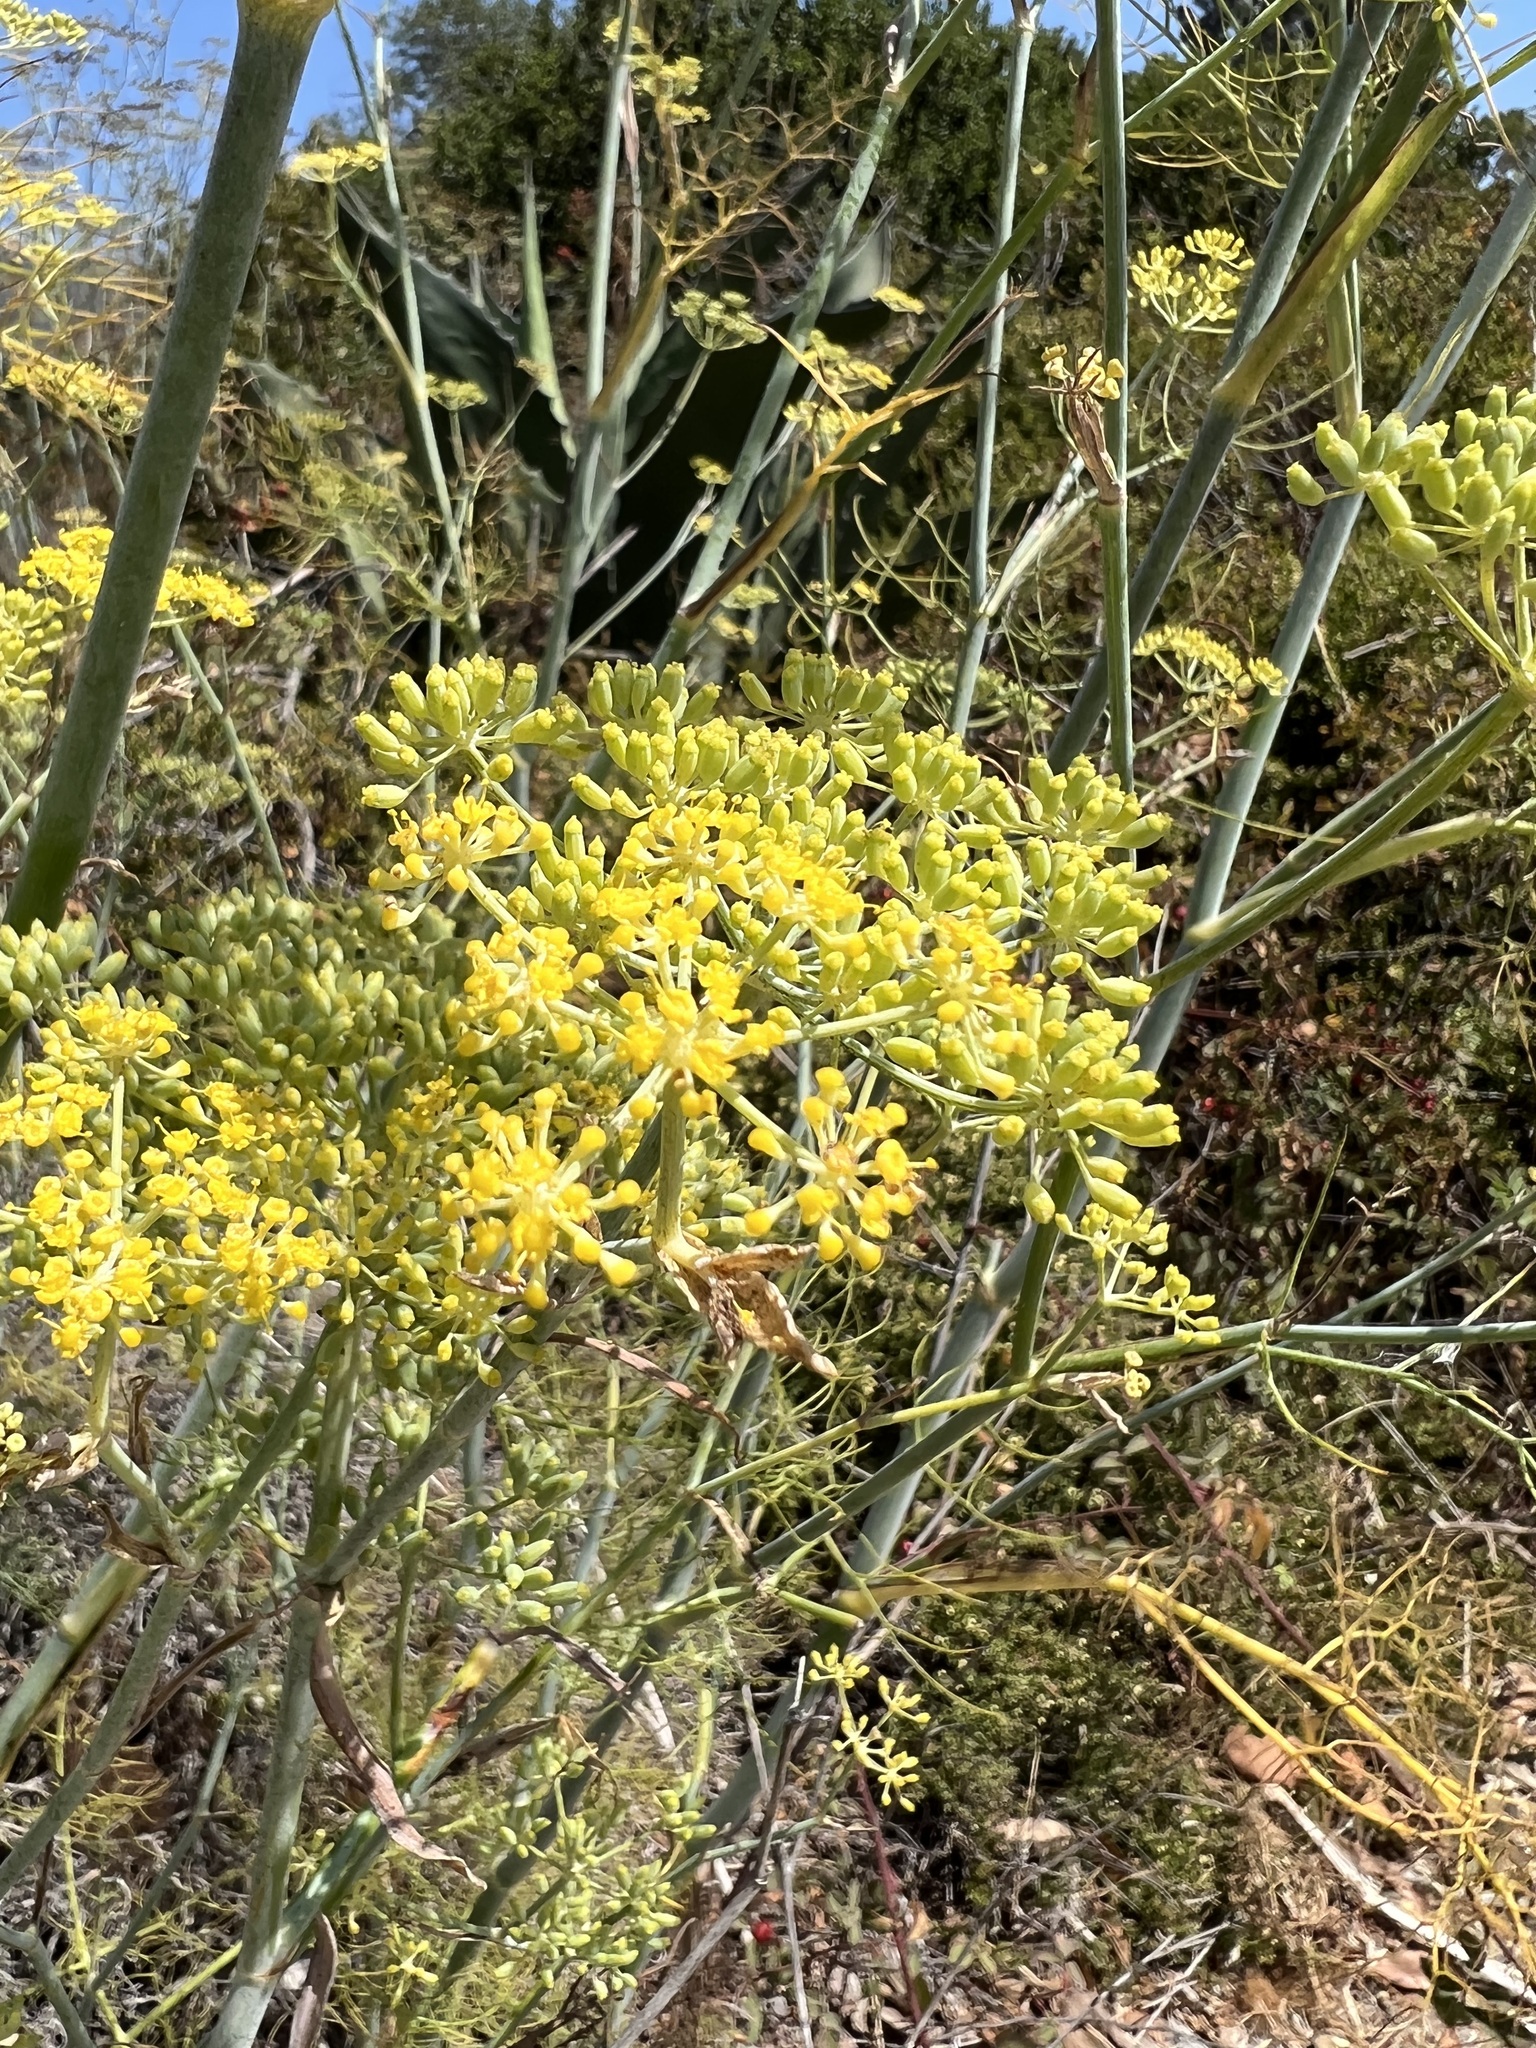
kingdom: Plantae
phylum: Tracheophyta
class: Magnoliopsida
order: Apiales
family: Apiaceae
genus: Foeniculum
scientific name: Foeniculum vulgare
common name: Fennel
